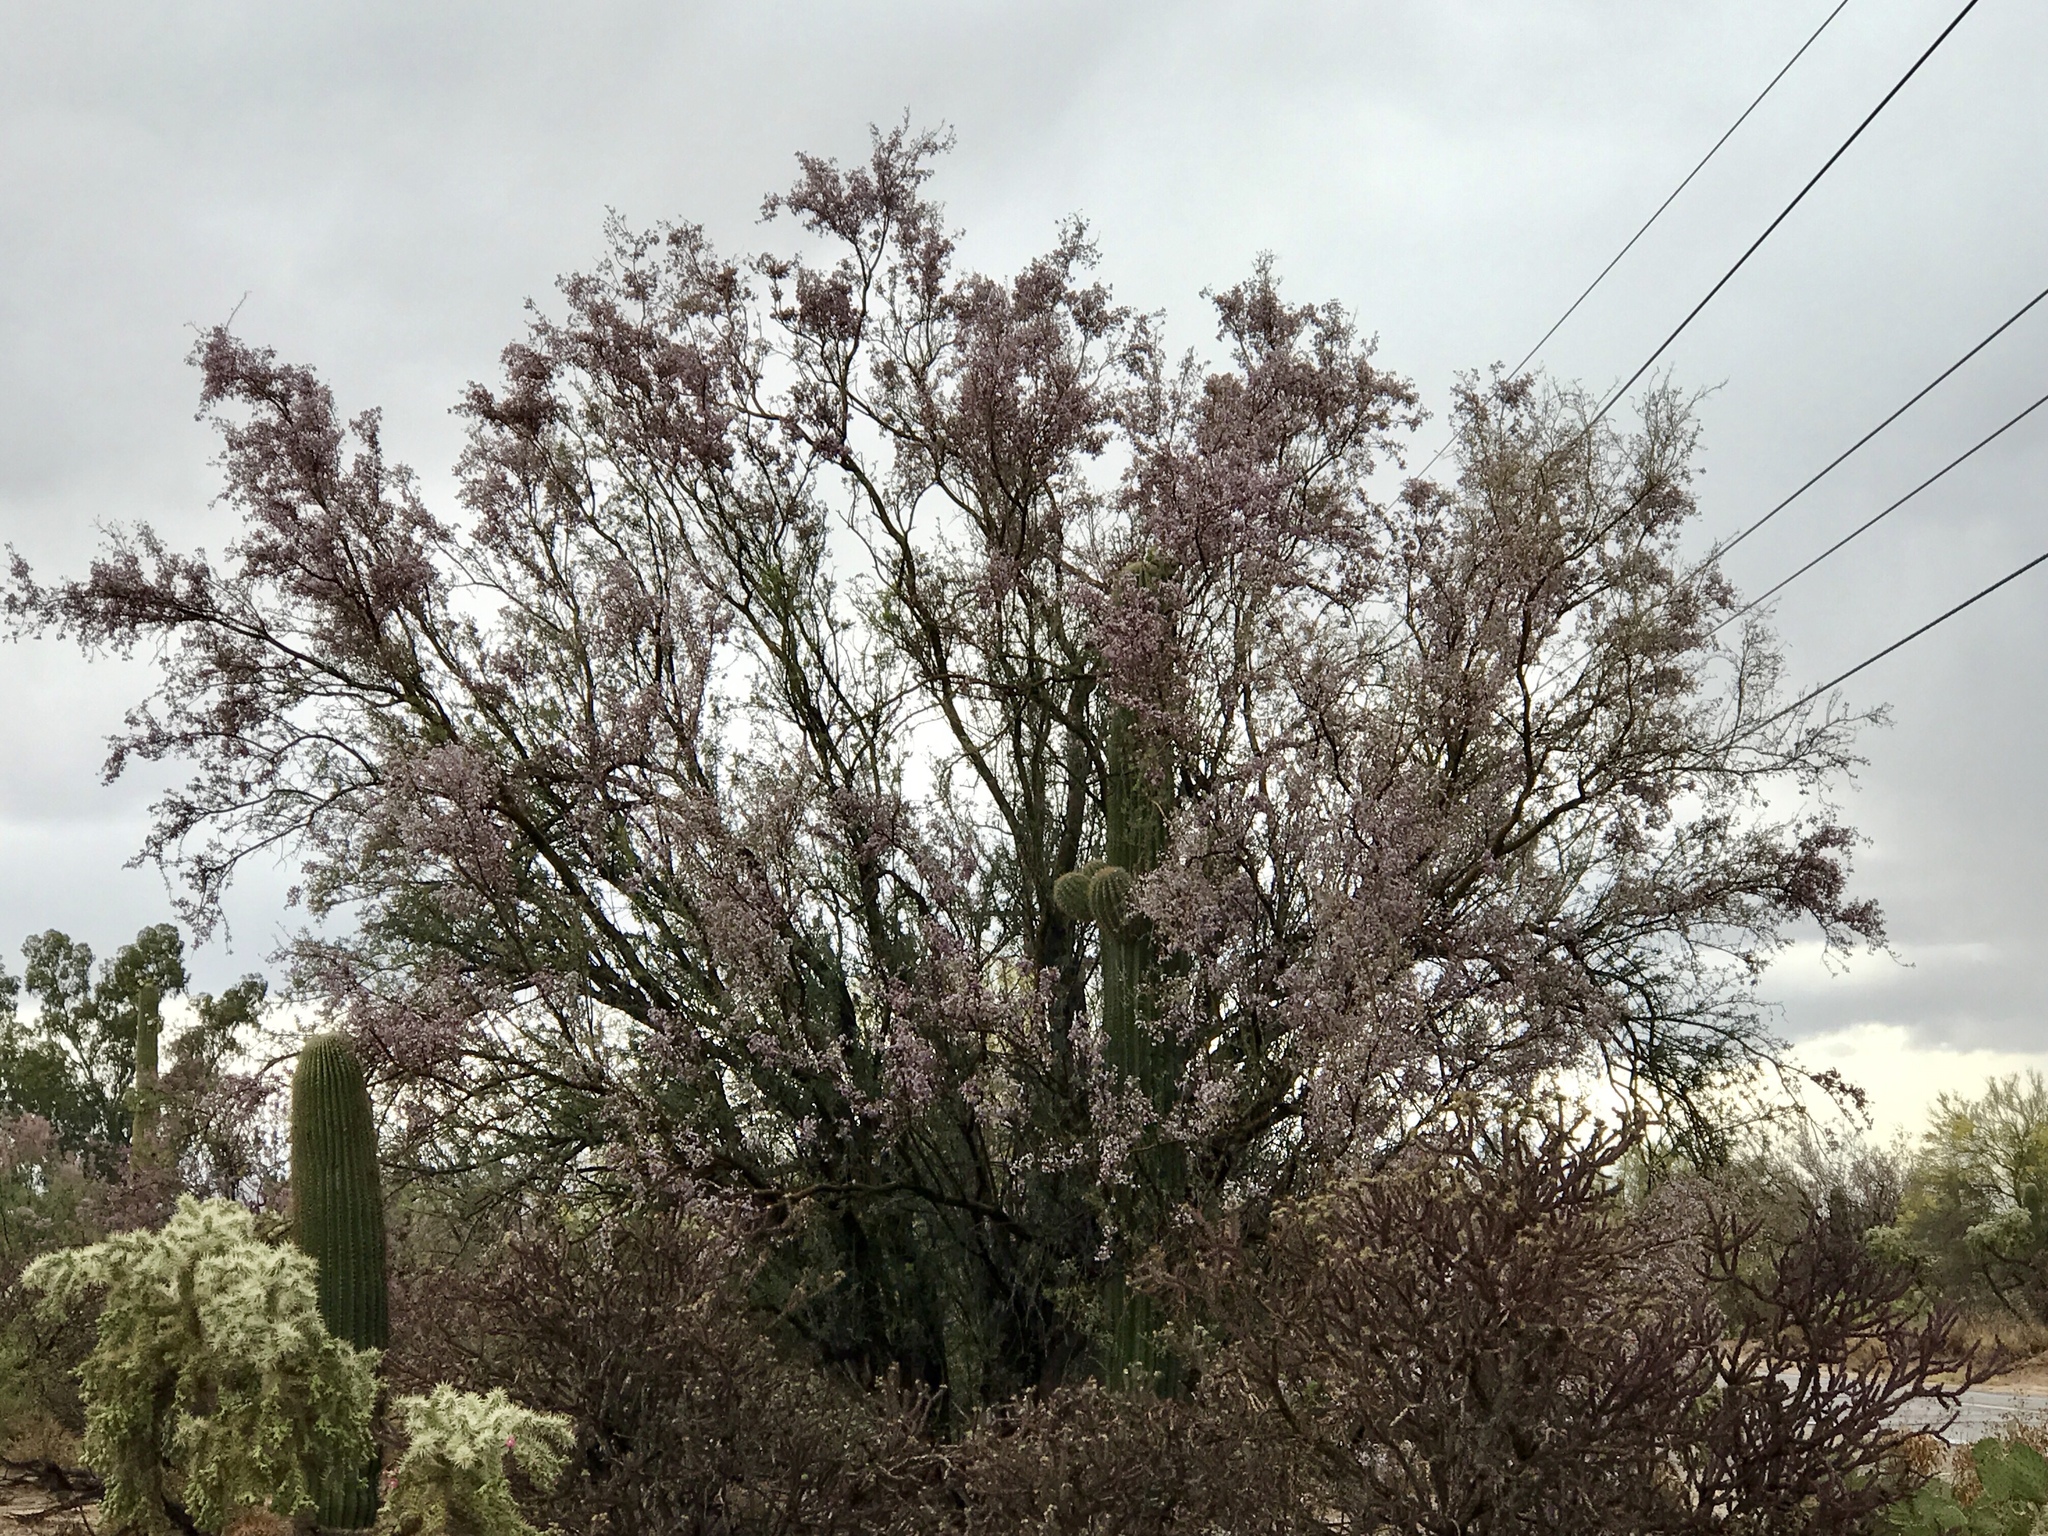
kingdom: Plantae
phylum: Tracheophyta
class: Magnoliopsida
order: Fabales
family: Fabaceae
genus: Olneya
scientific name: Olneya tesota
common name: Desert ironwood
